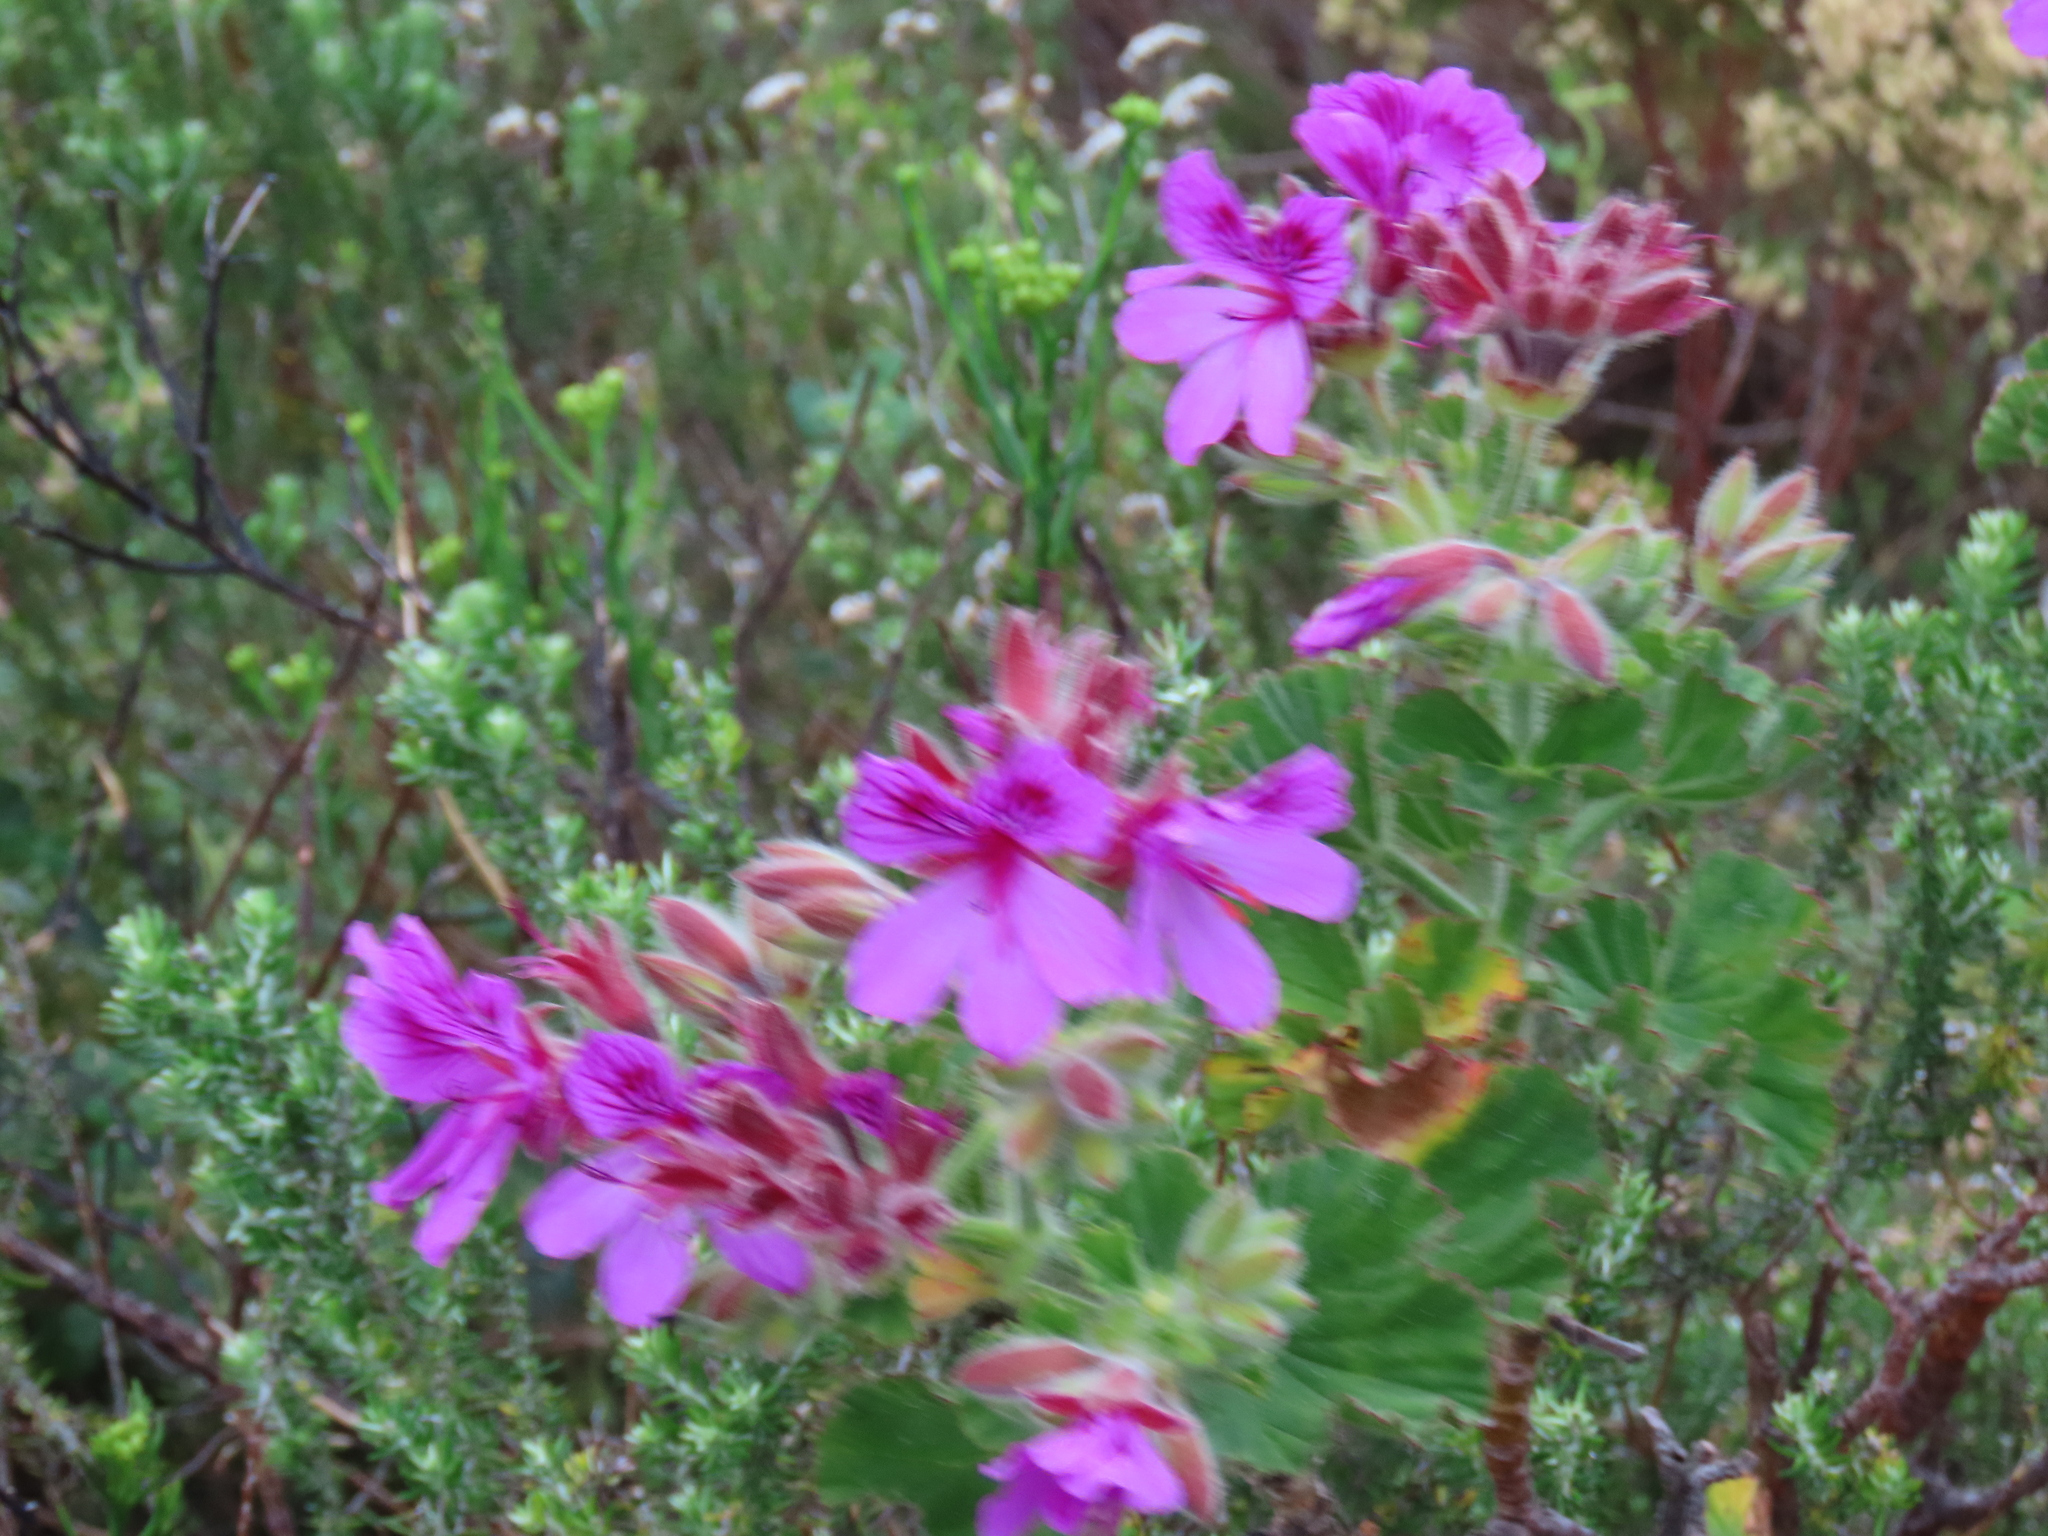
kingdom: Plantae
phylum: Tracheophyta
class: Magnoliopsida
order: Geraniales
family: Geraniaceae
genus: Pelargonium
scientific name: Pelargonium cucullatum
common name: Tree pelargonium
